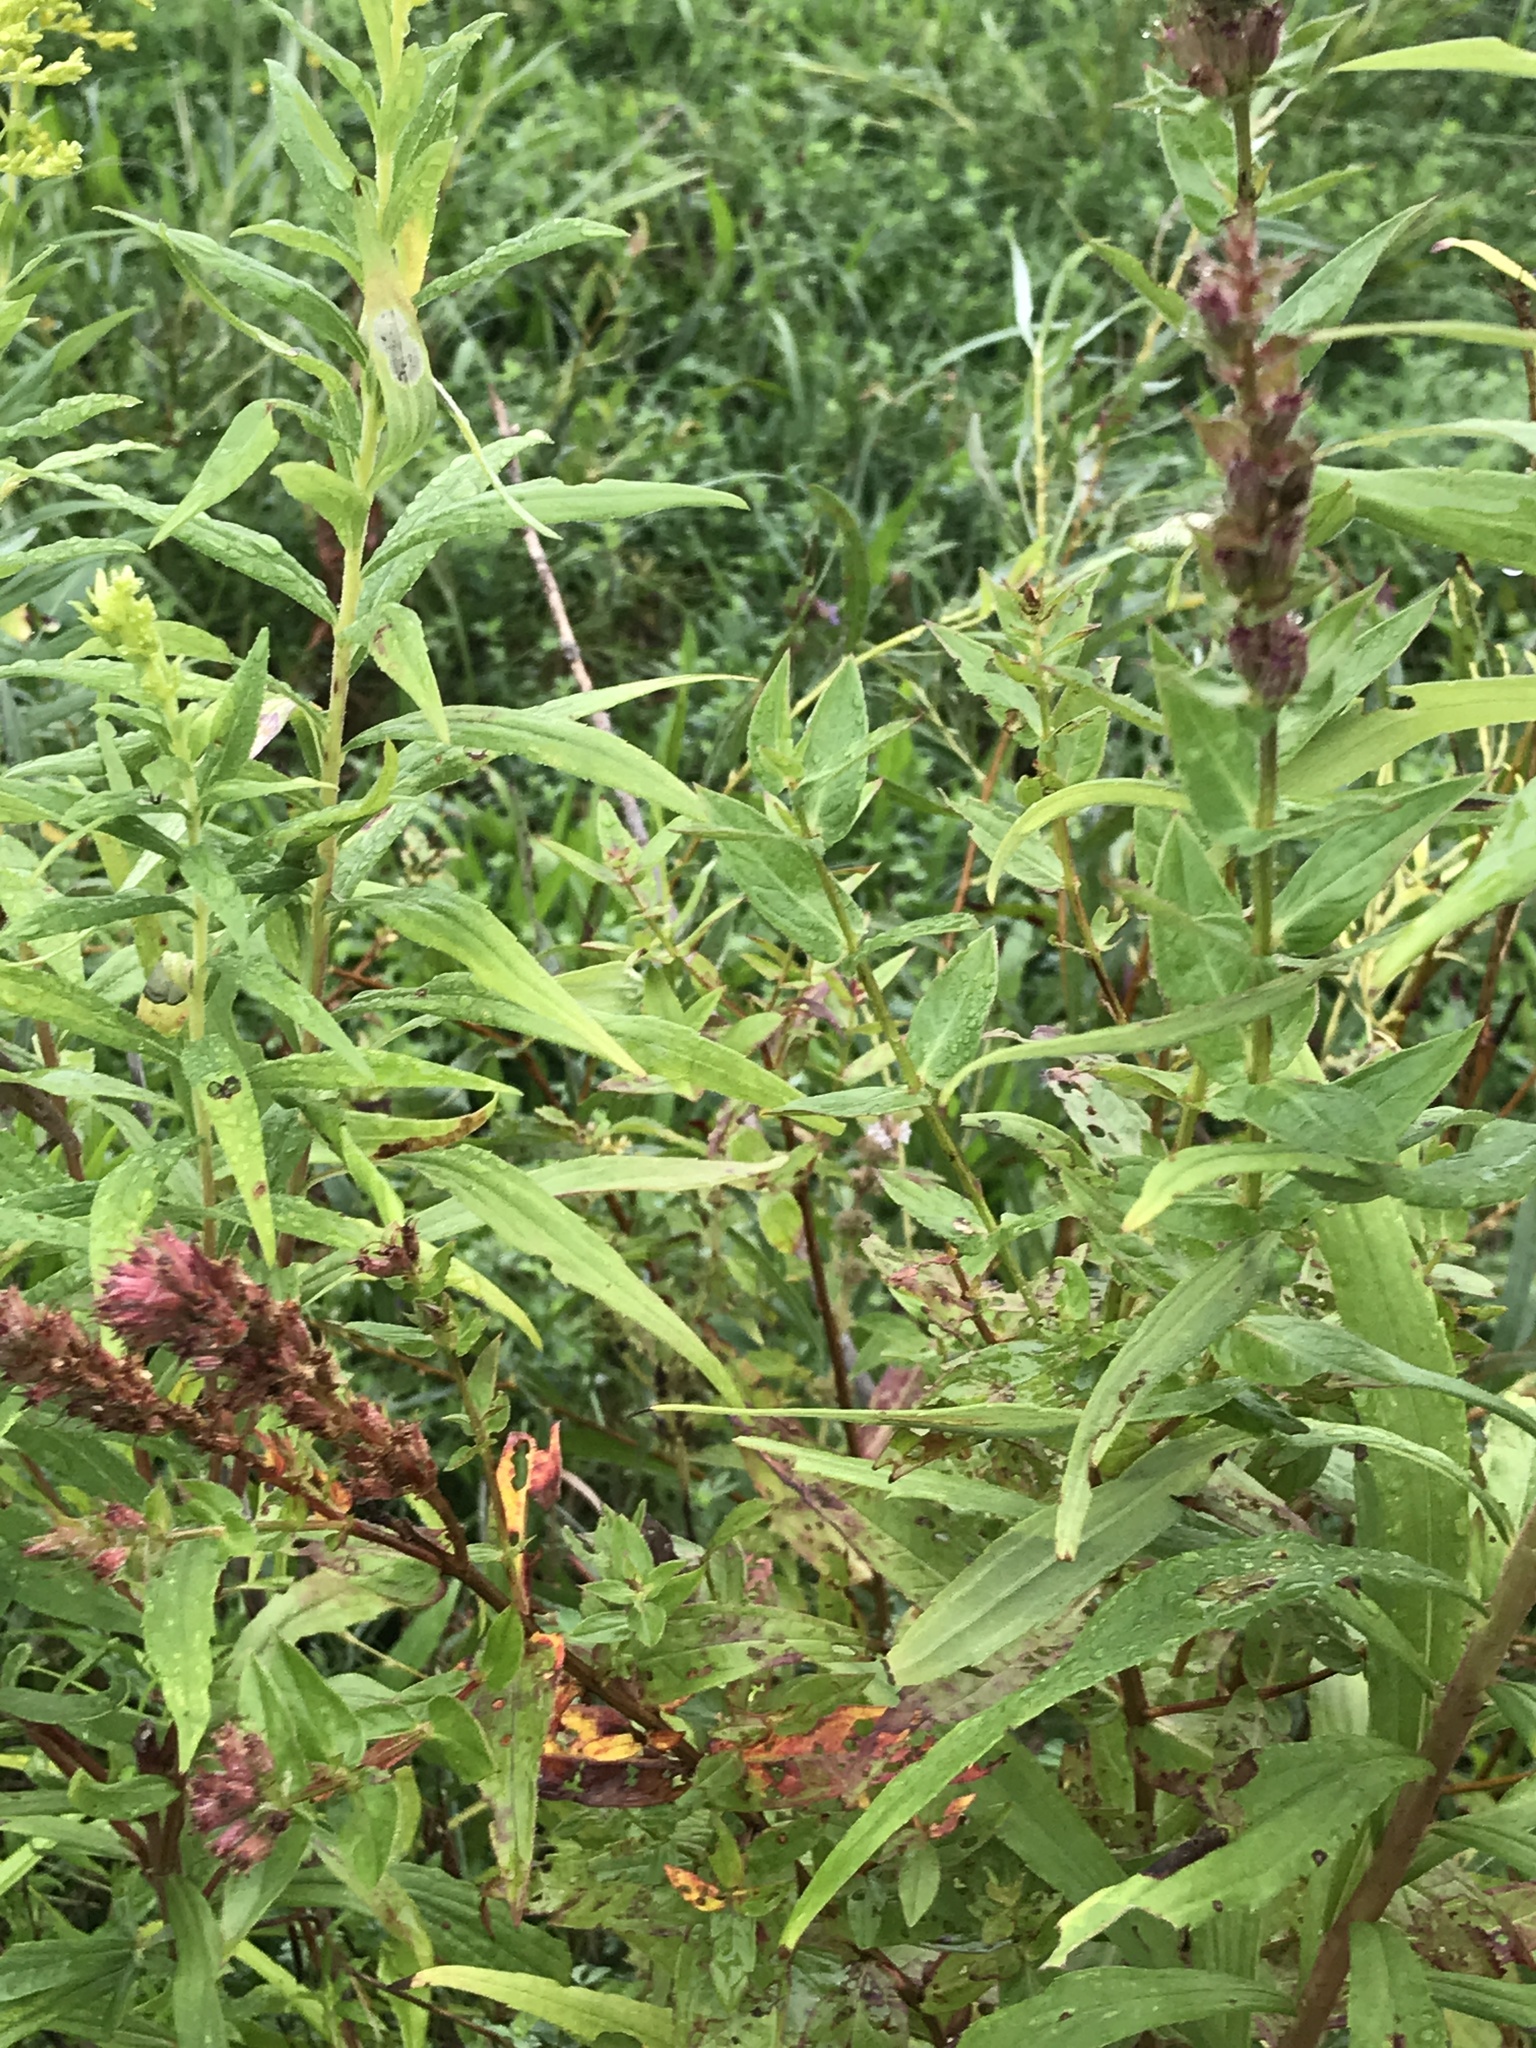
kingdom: Plantae
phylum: Tracheophyta
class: Magnoliopsida
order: Myrtales
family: Lythraceae
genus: Lythrum
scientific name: Lythrum salicaria
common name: Purple loosestrife
